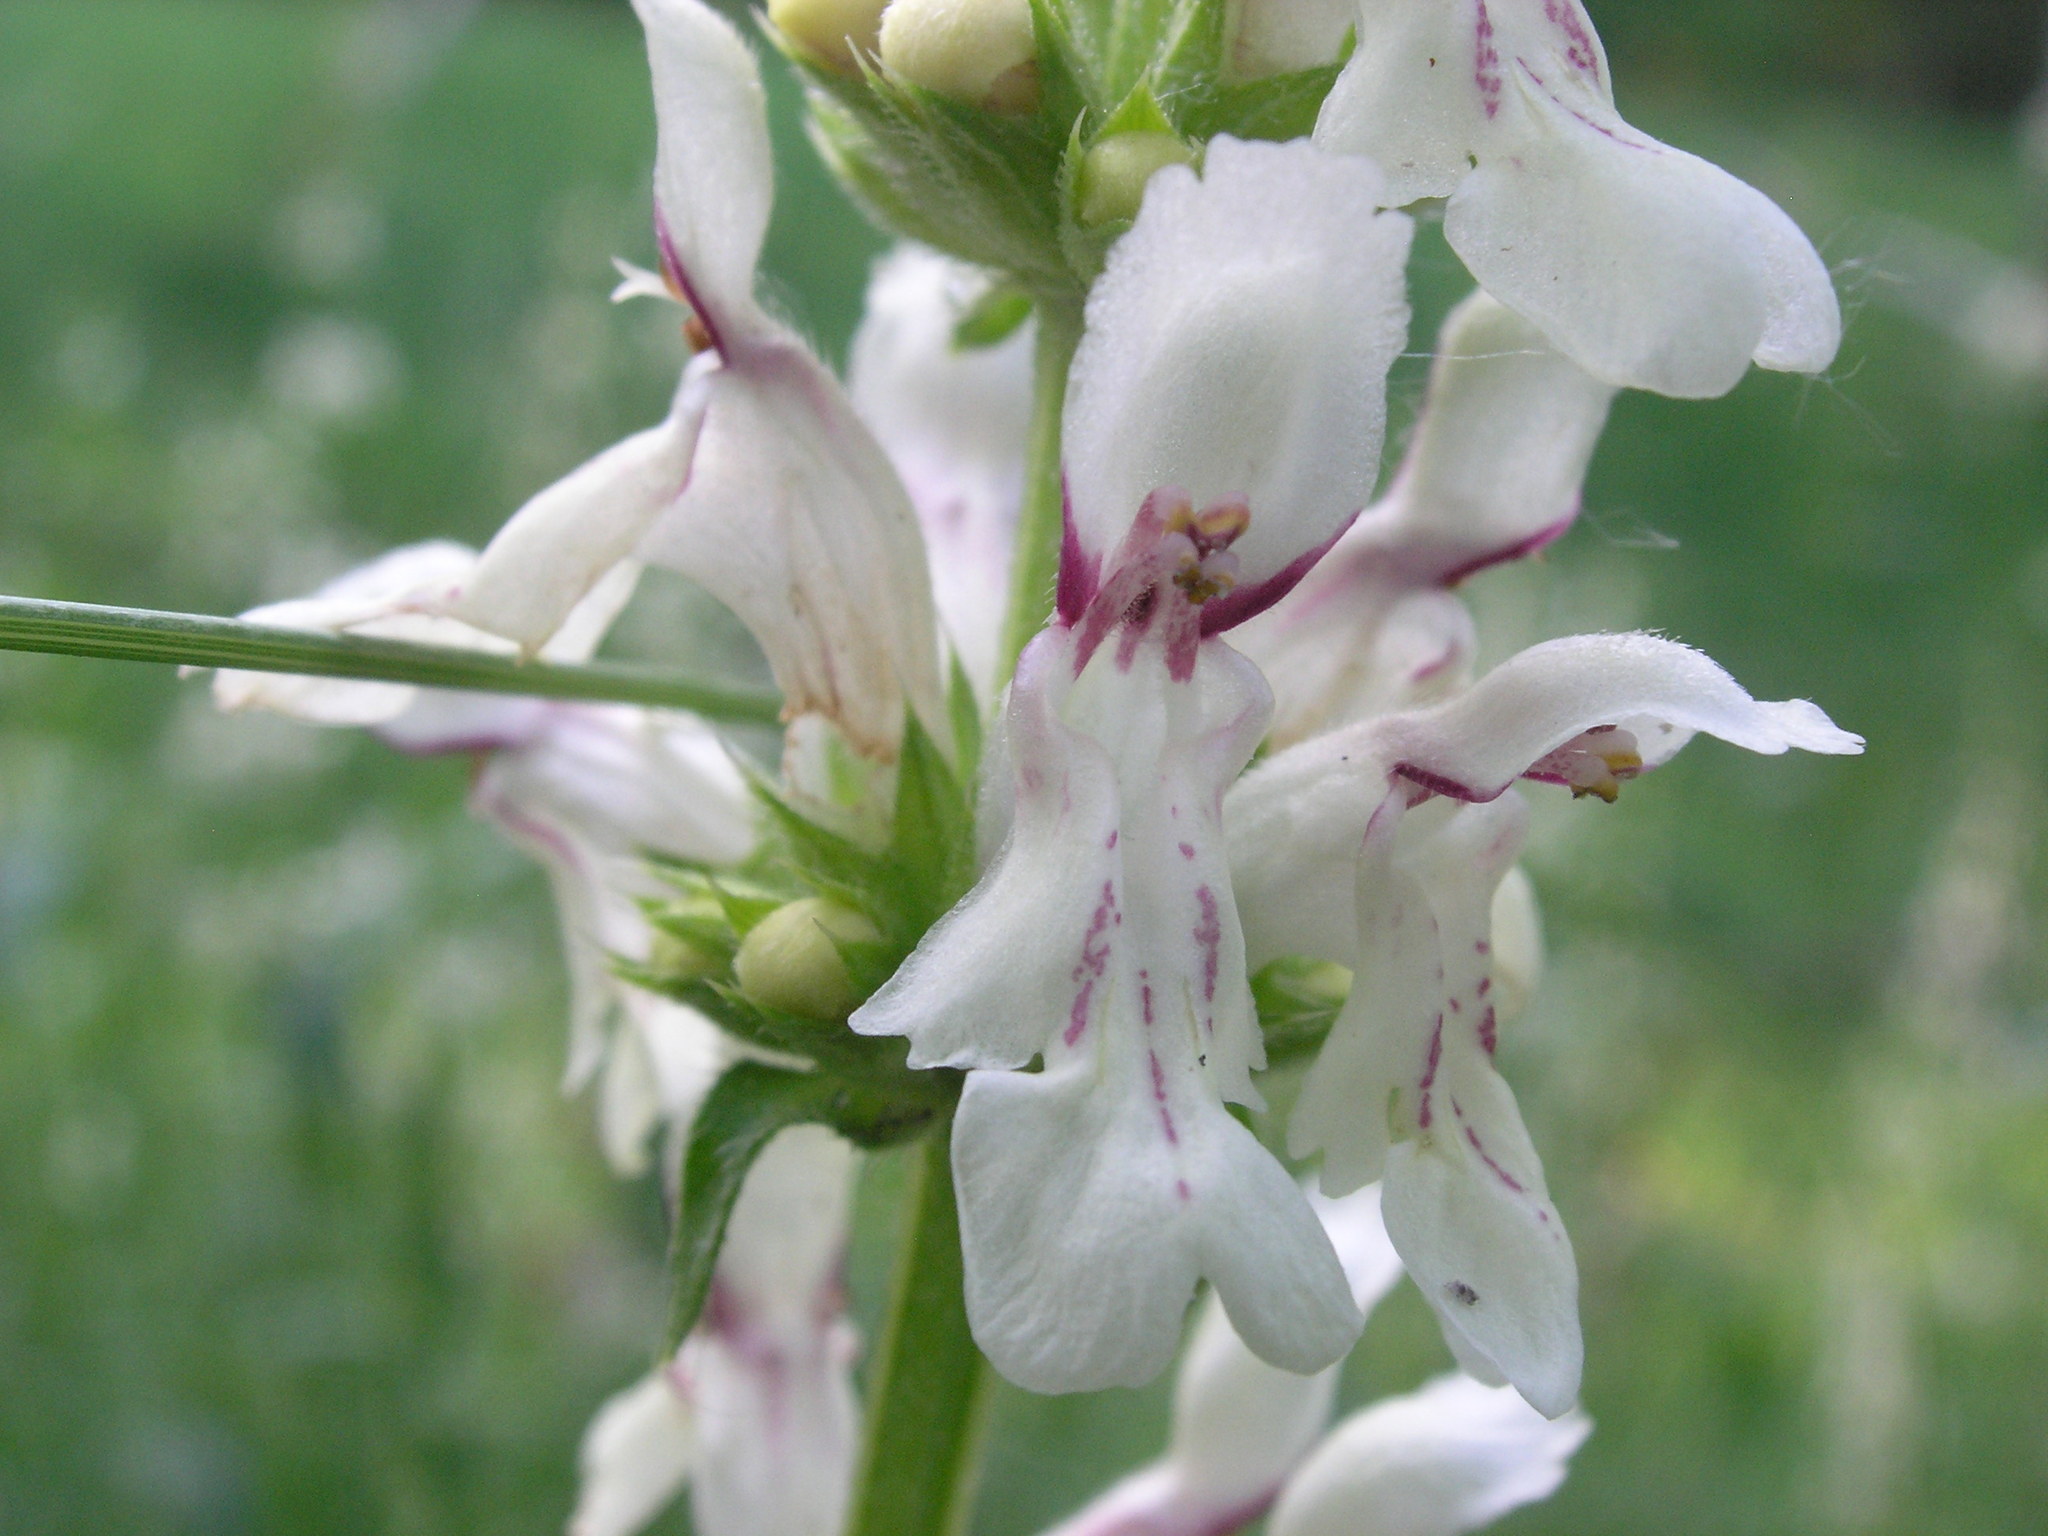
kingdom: Plantae
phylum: Tracheophyta
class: Magnoliopsida
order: Lamiales
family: Lamiaceae
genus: Stachys
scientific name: Stachys recta
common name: Perennial yellow-woundwort
